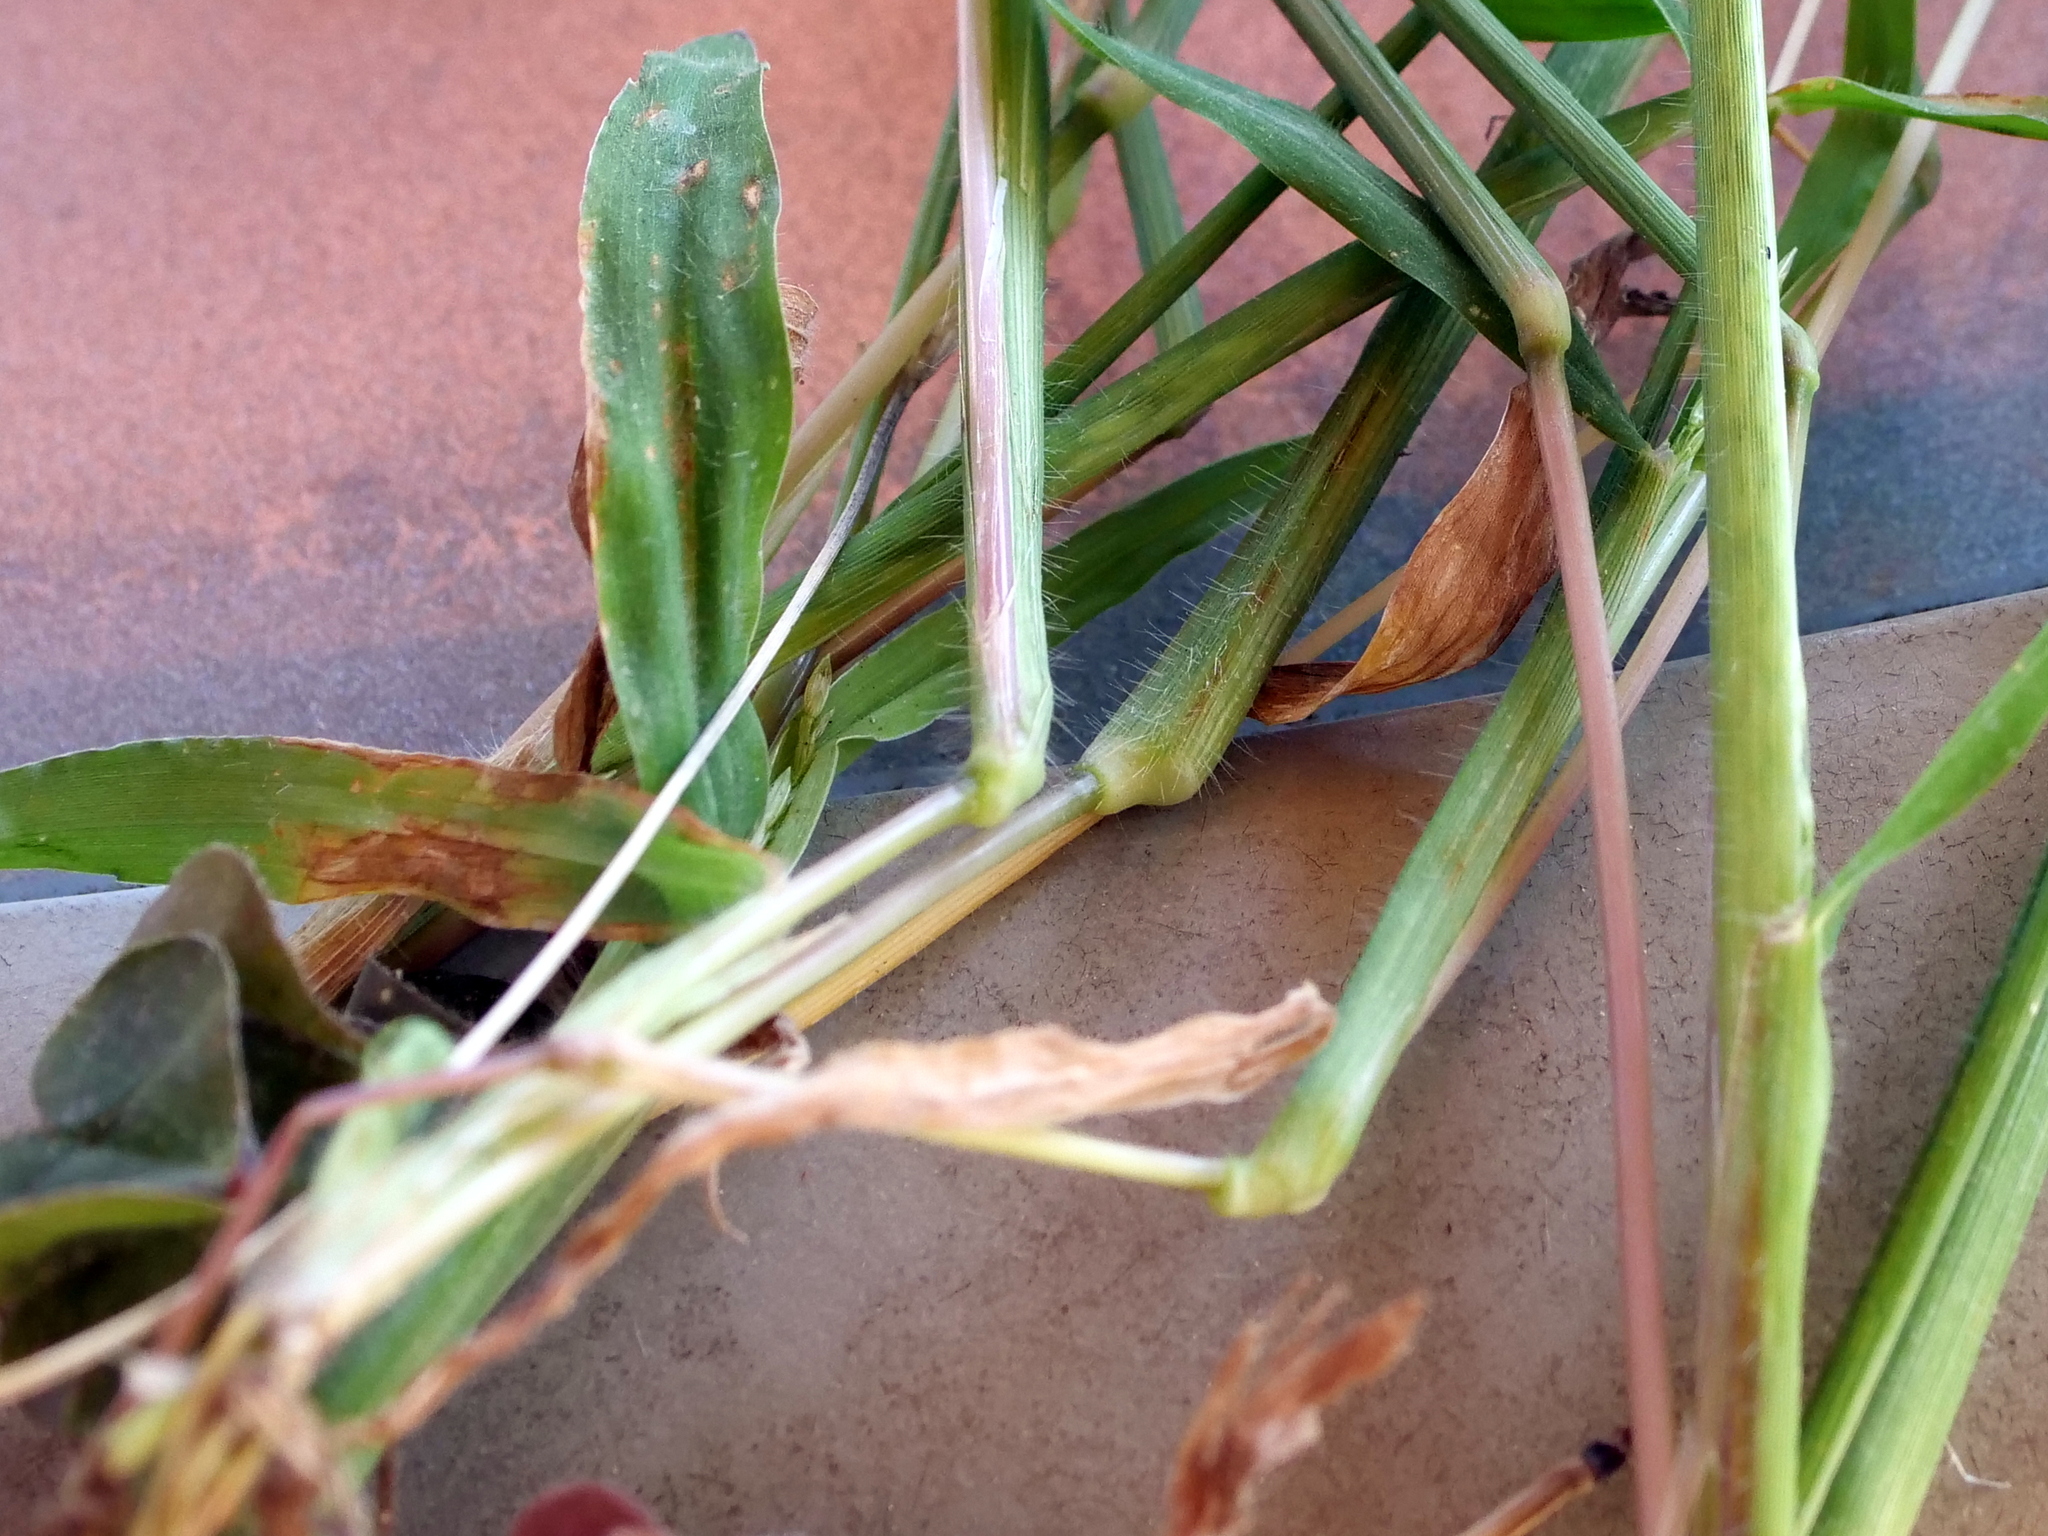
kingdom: Plantae
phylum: Tracheophyta
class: Liliopsida
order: Poales
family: Poaceae
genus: Digitaria
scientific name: Digitaria sanguinalis
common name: Hairy crabgrass
